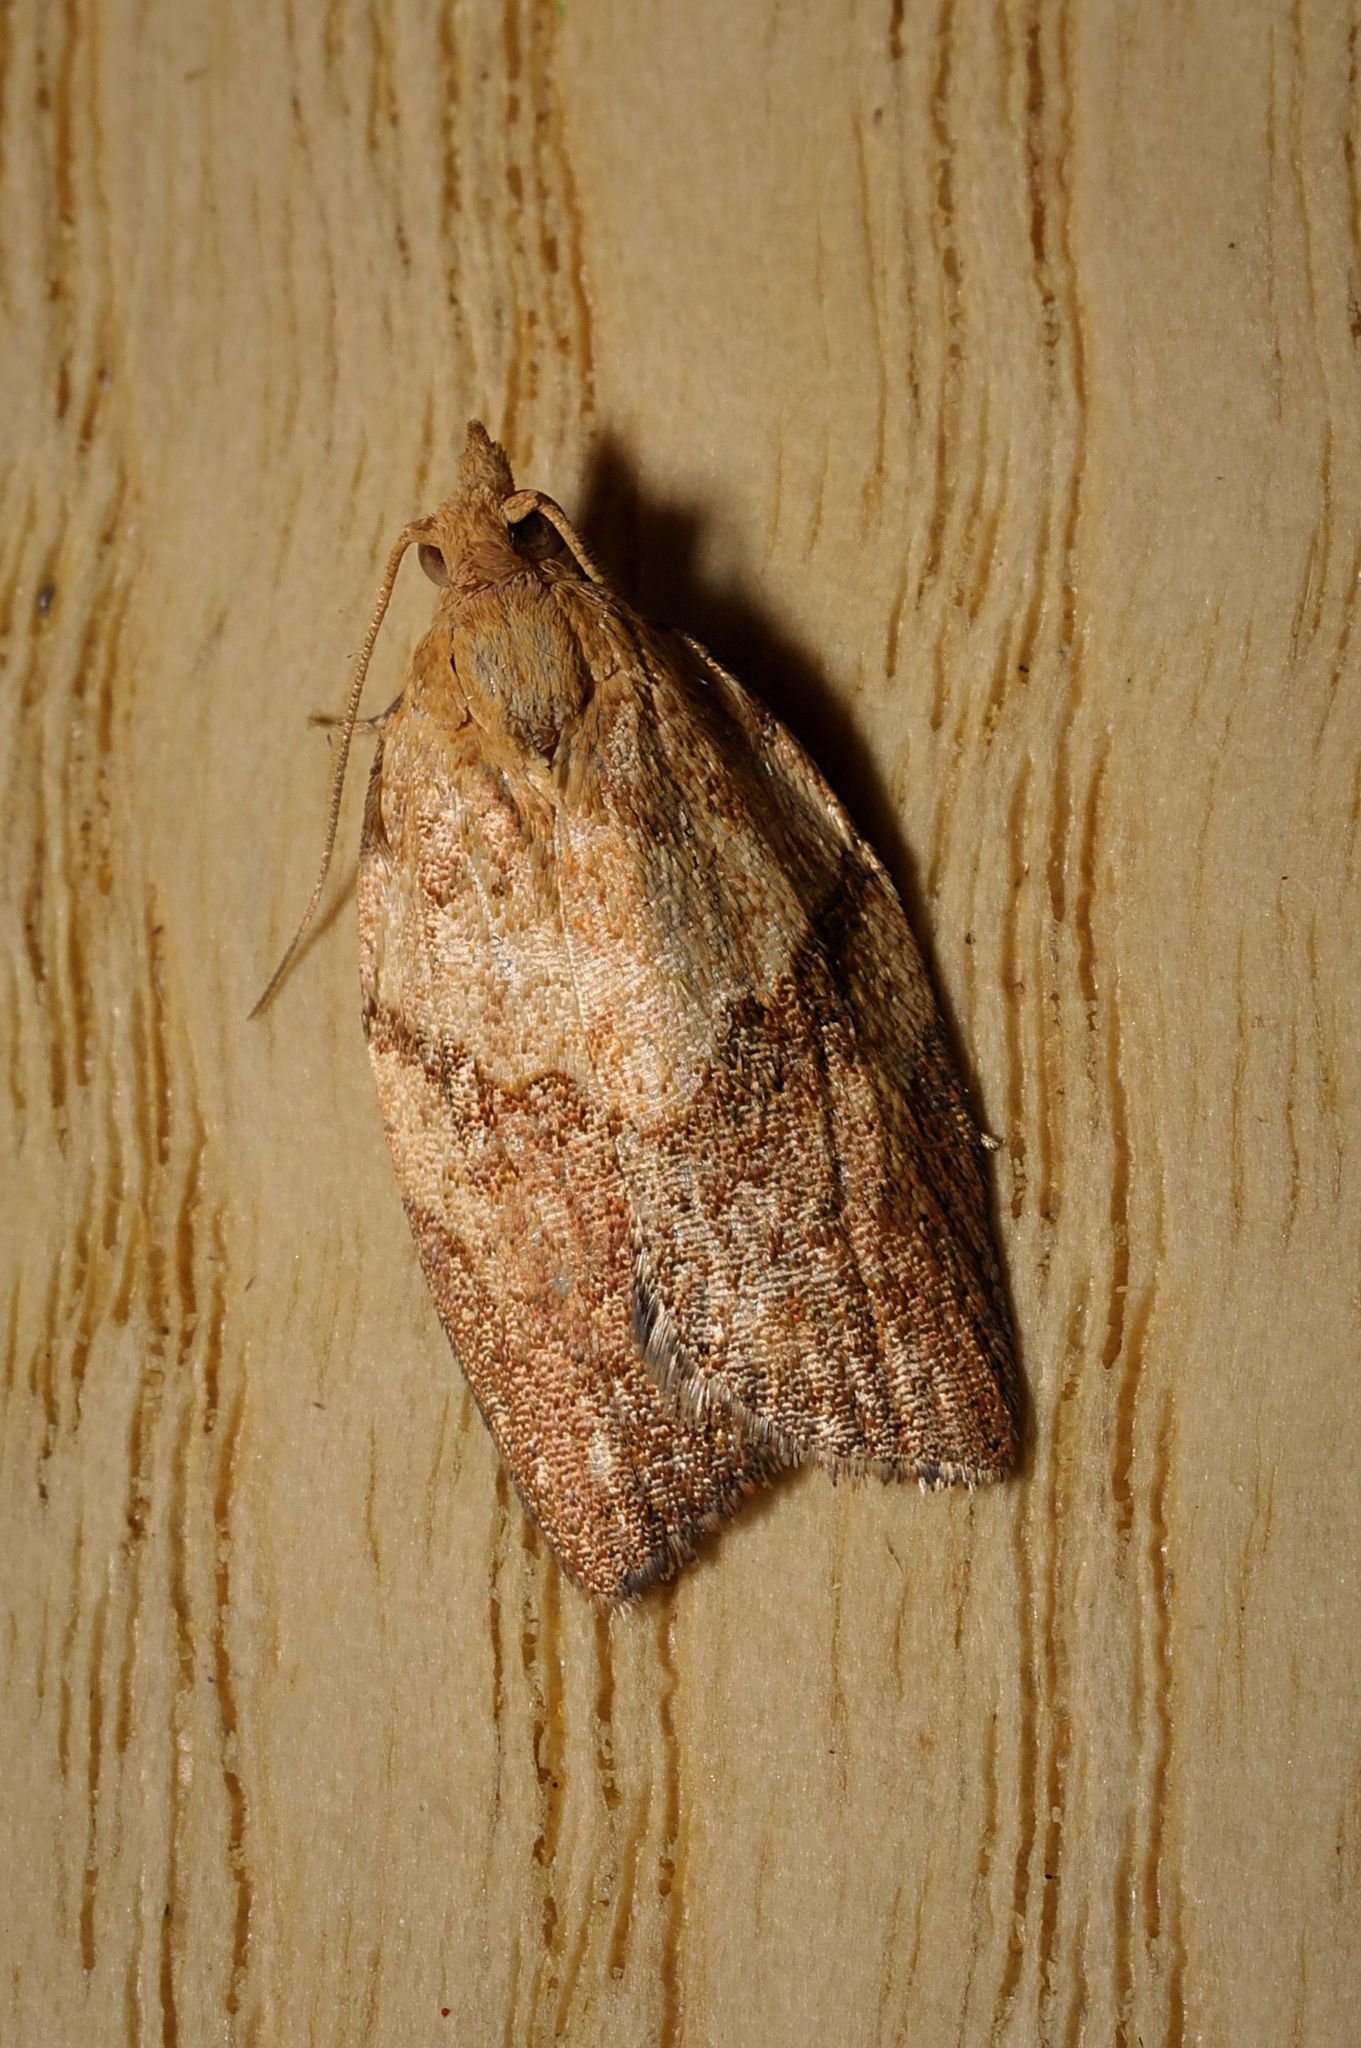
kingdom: Animalia
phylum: Arthropoda
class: Insecta
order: Lepidoptera
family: Tortricidae
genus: Epiphyas
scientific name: Epiphyas postvittana
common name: Light brown apple moth
